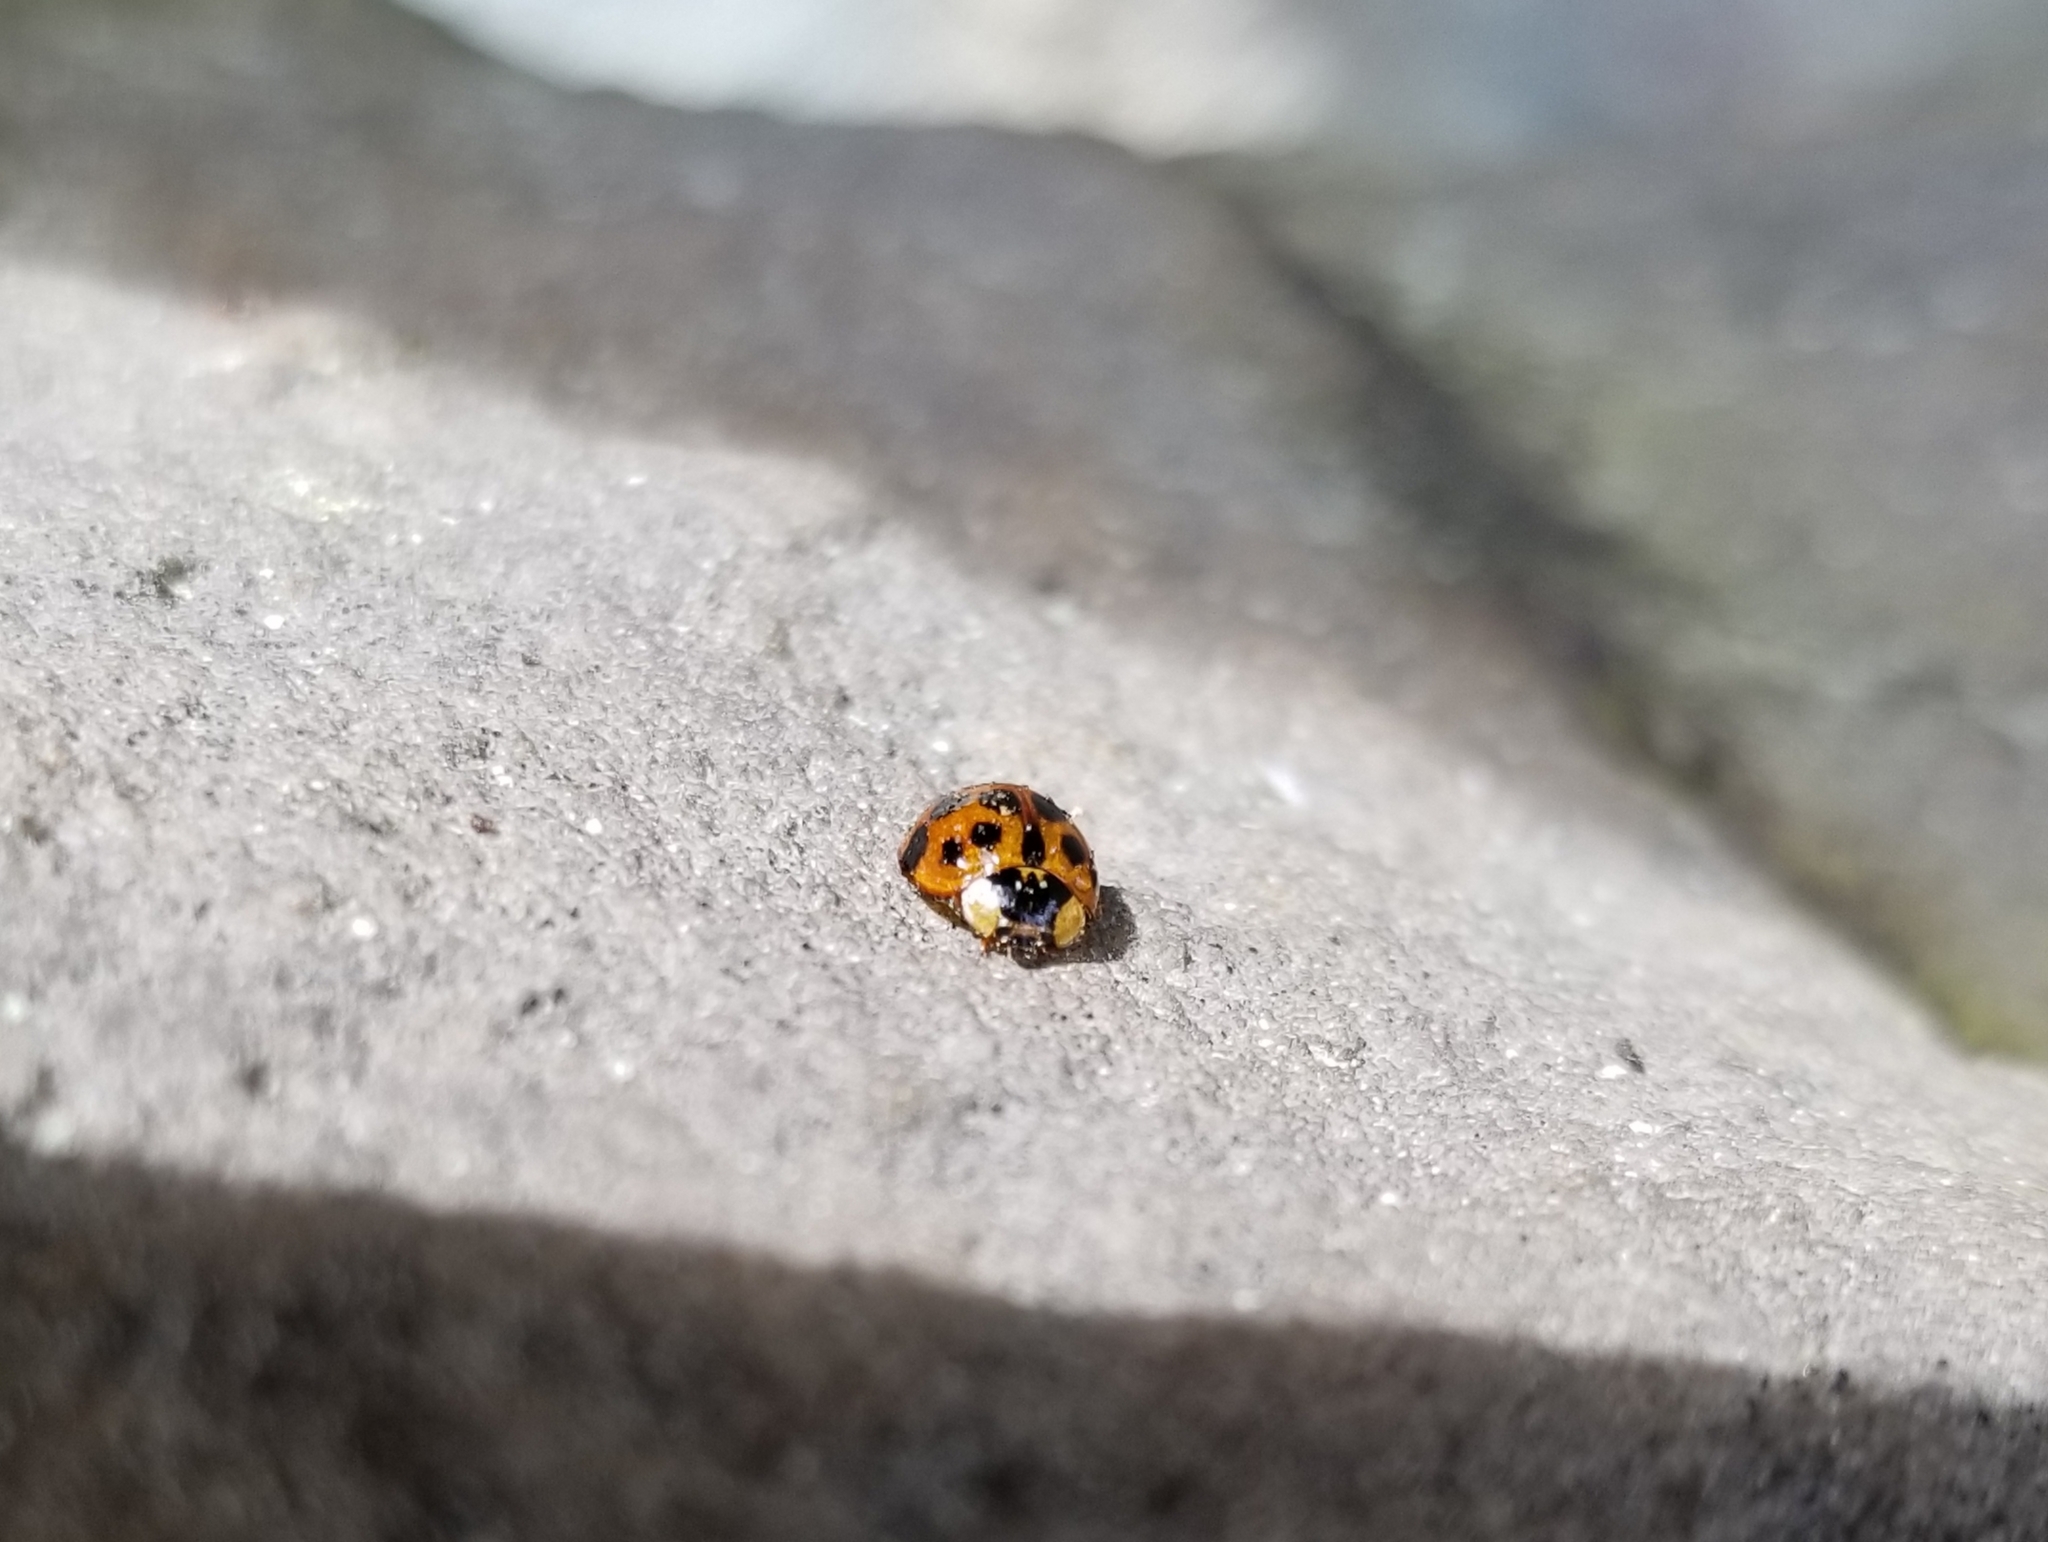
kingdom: Animalia
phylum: Arthropoda
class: Insecta
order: Coleoptera
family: Coccinellidae
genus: Harmonia
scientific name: Harmonia axyridis
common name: Harlequin ladybird
